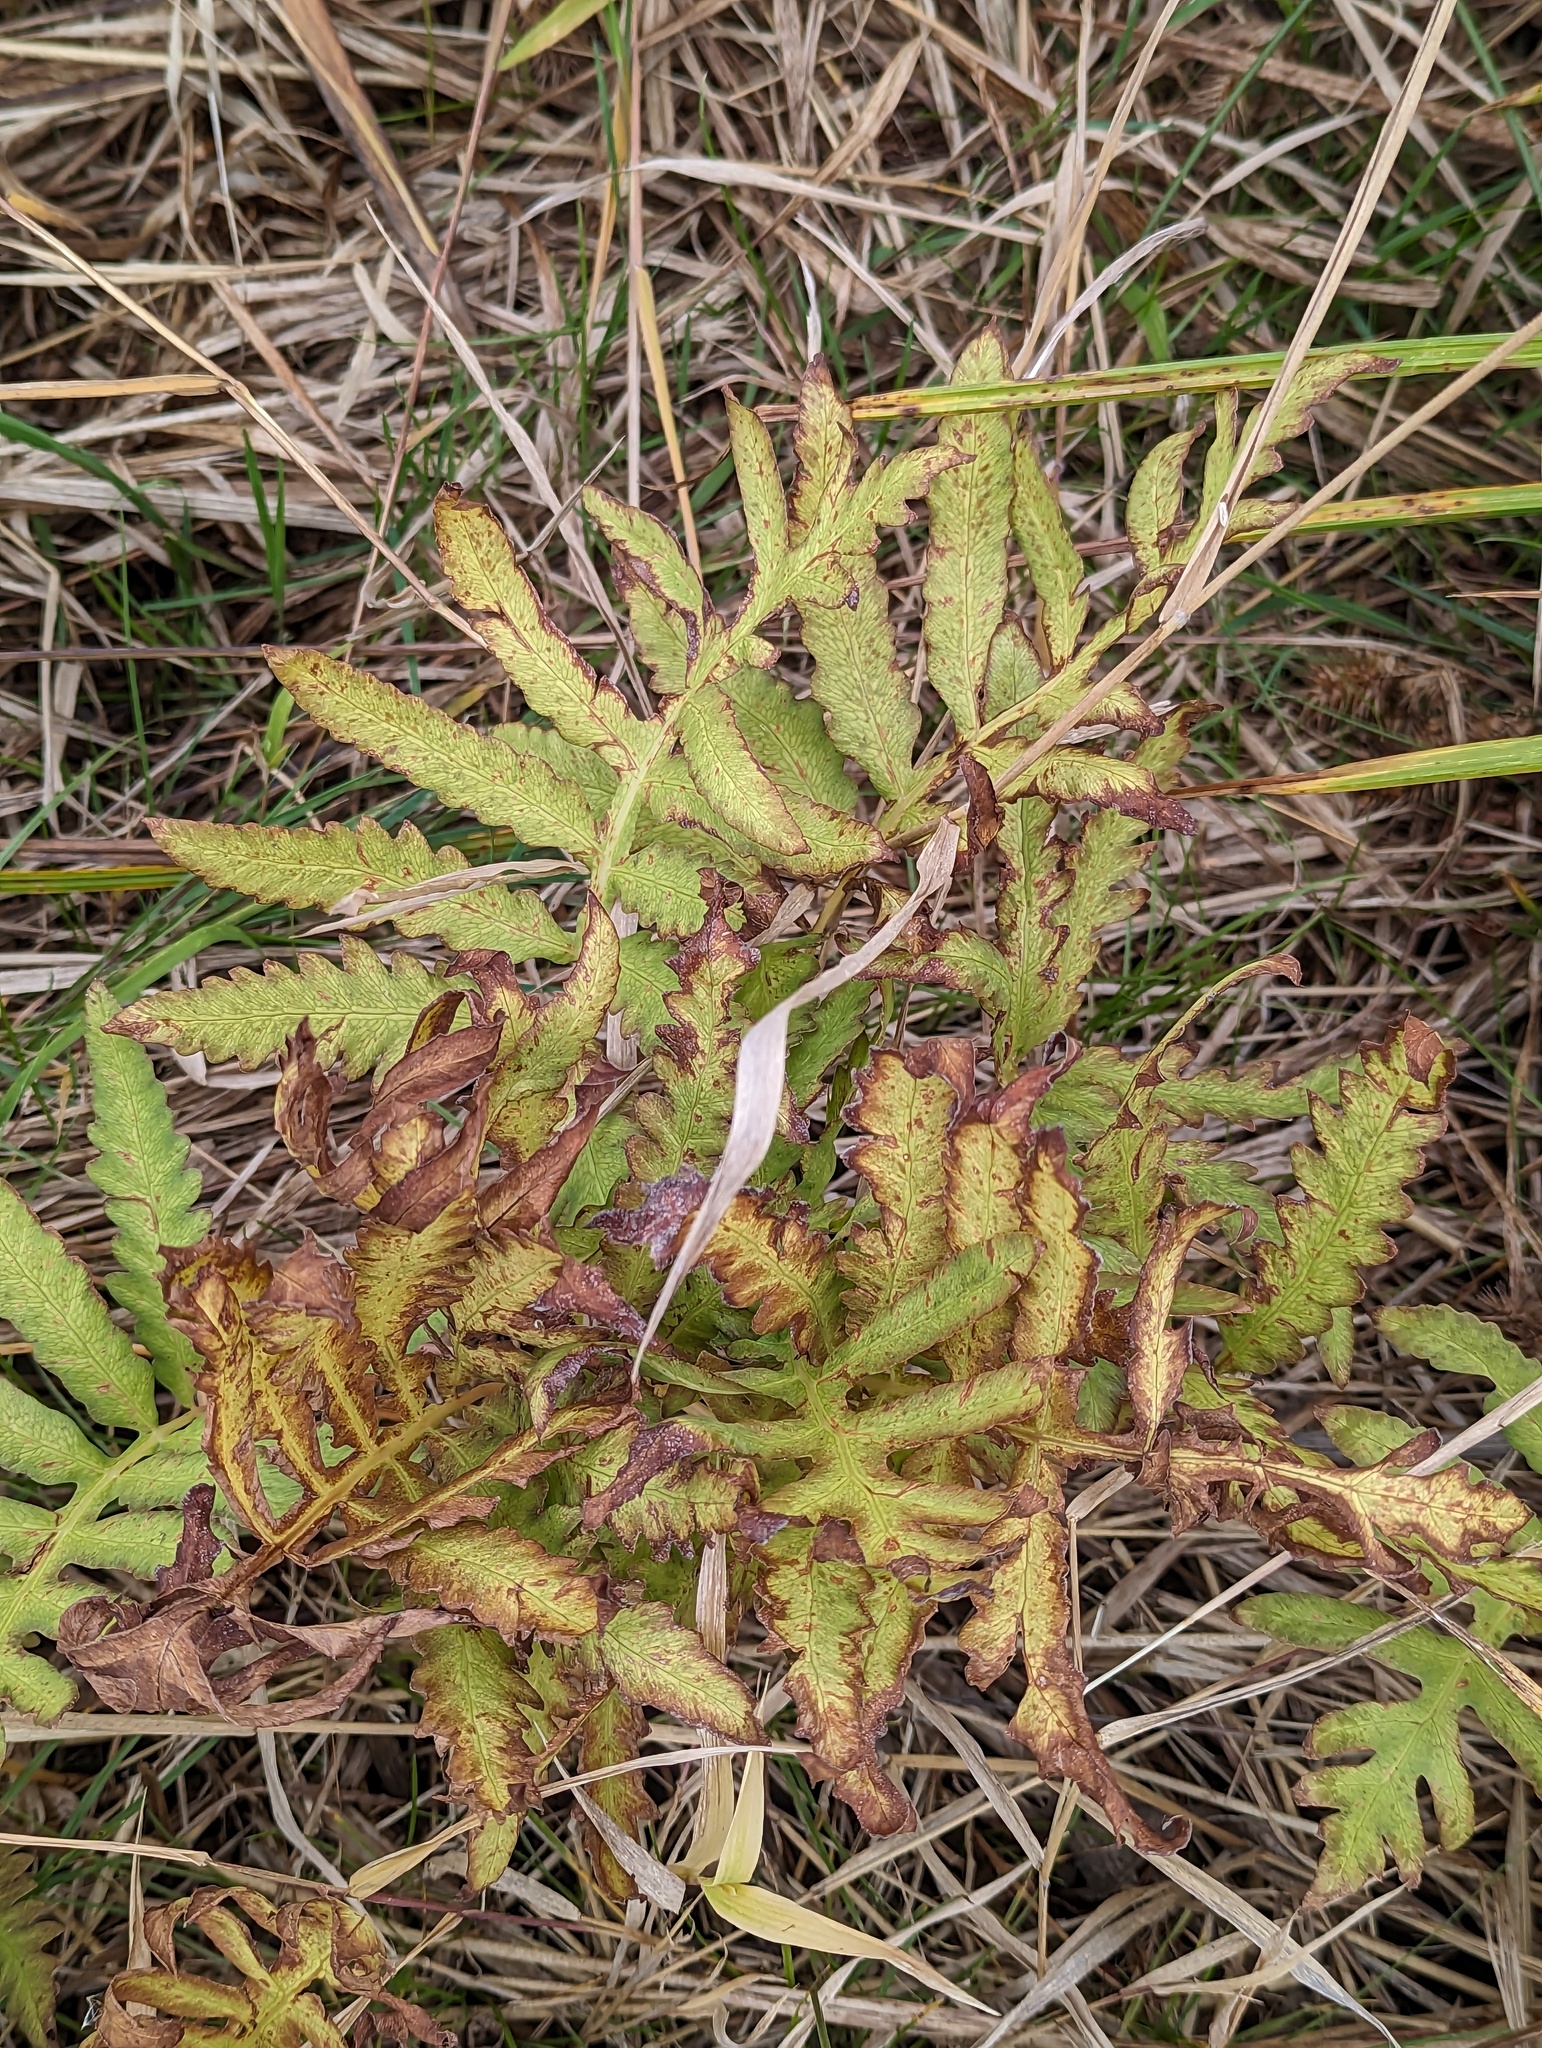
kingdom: Plantae
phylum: Tracheophyta
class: Polypodiopsida
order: Polypodiales
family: Onocleaceae
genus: Onoclea
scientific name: Onoclea sensibilis
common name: Sensitive fern
